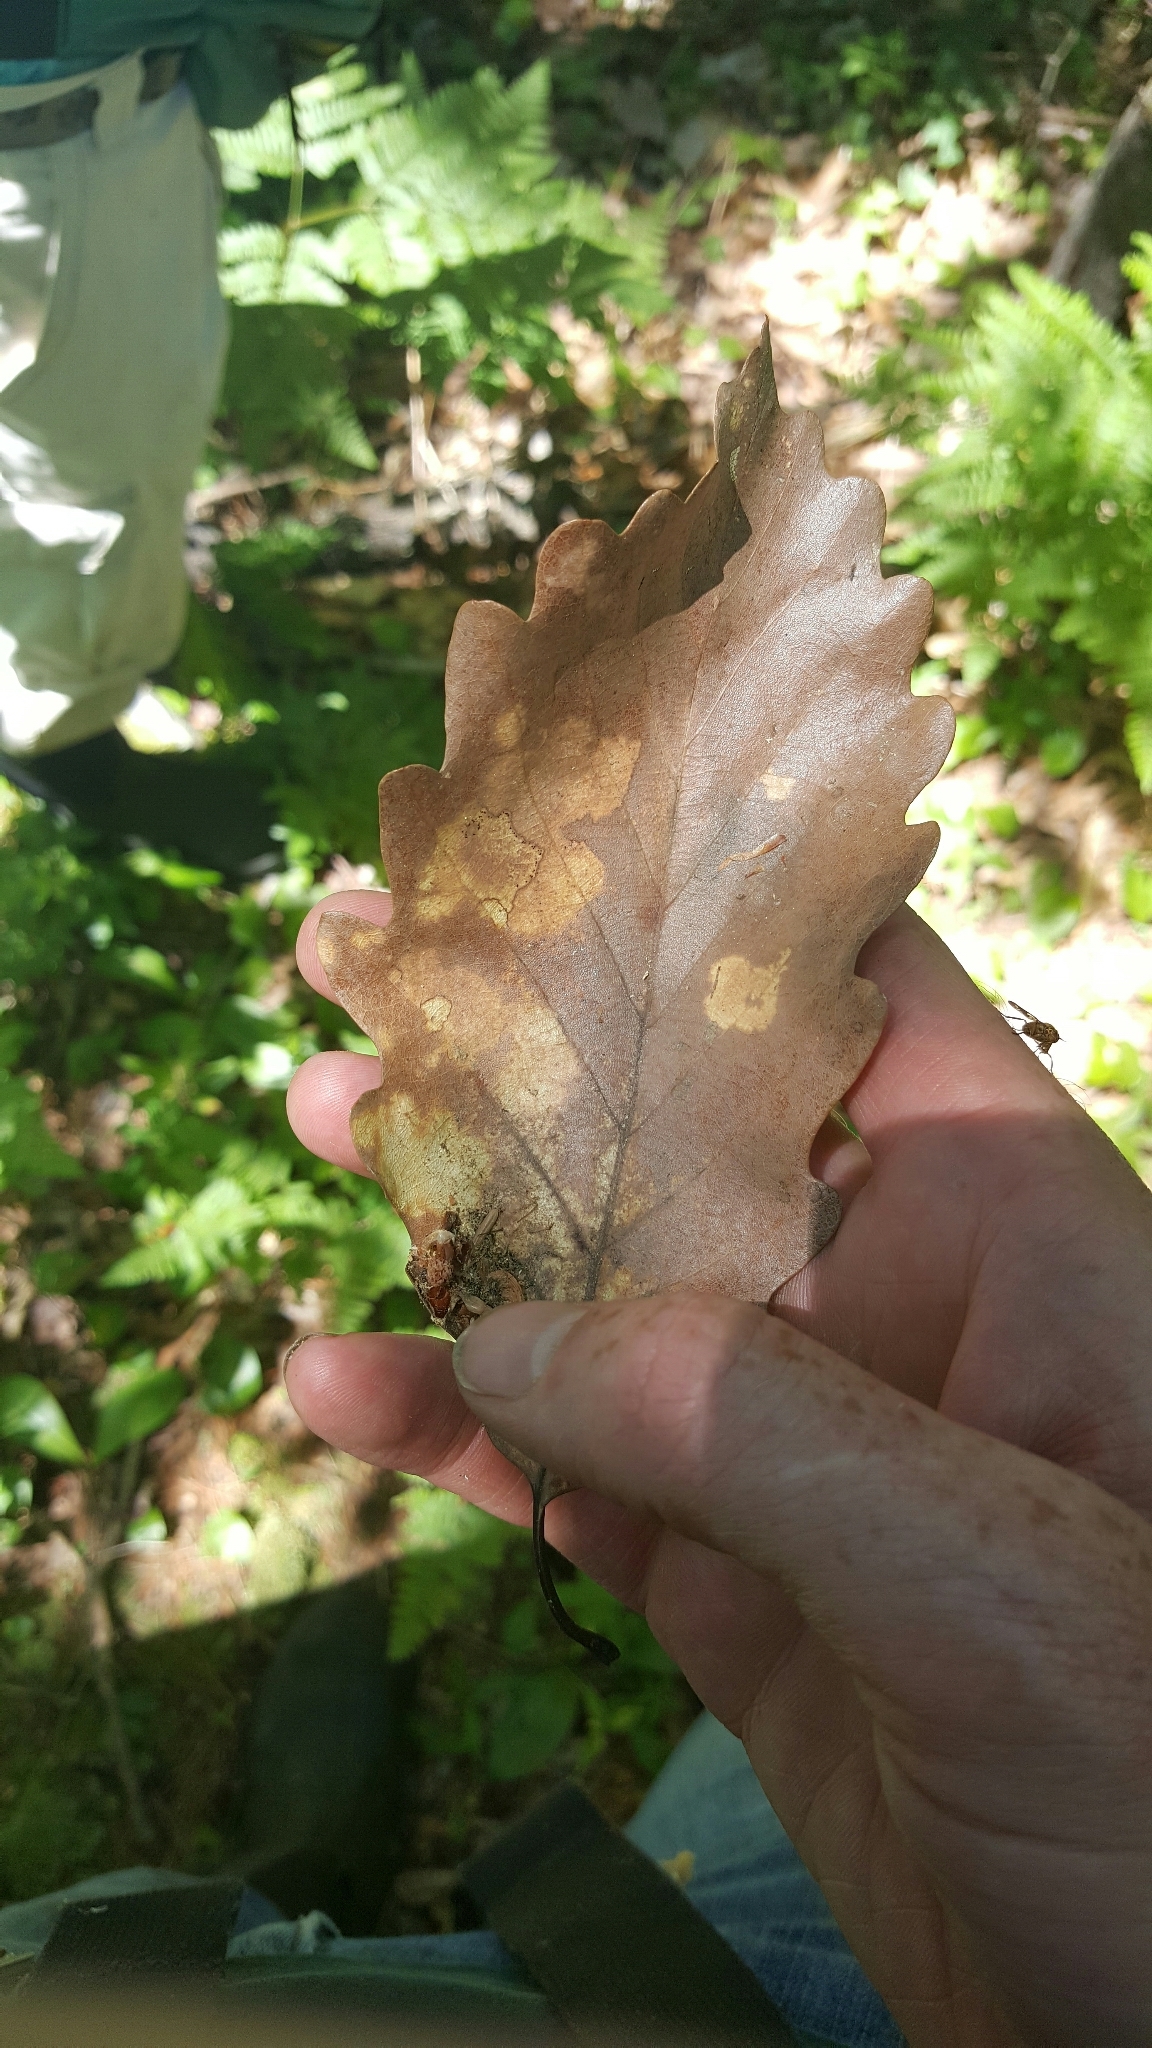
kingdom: Plantae
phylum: Tracheophyta
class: Magnoliopsida
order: Fagales
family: Fagaceae
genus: Quercus
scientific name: Quercus montana
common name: Chestnut oak
